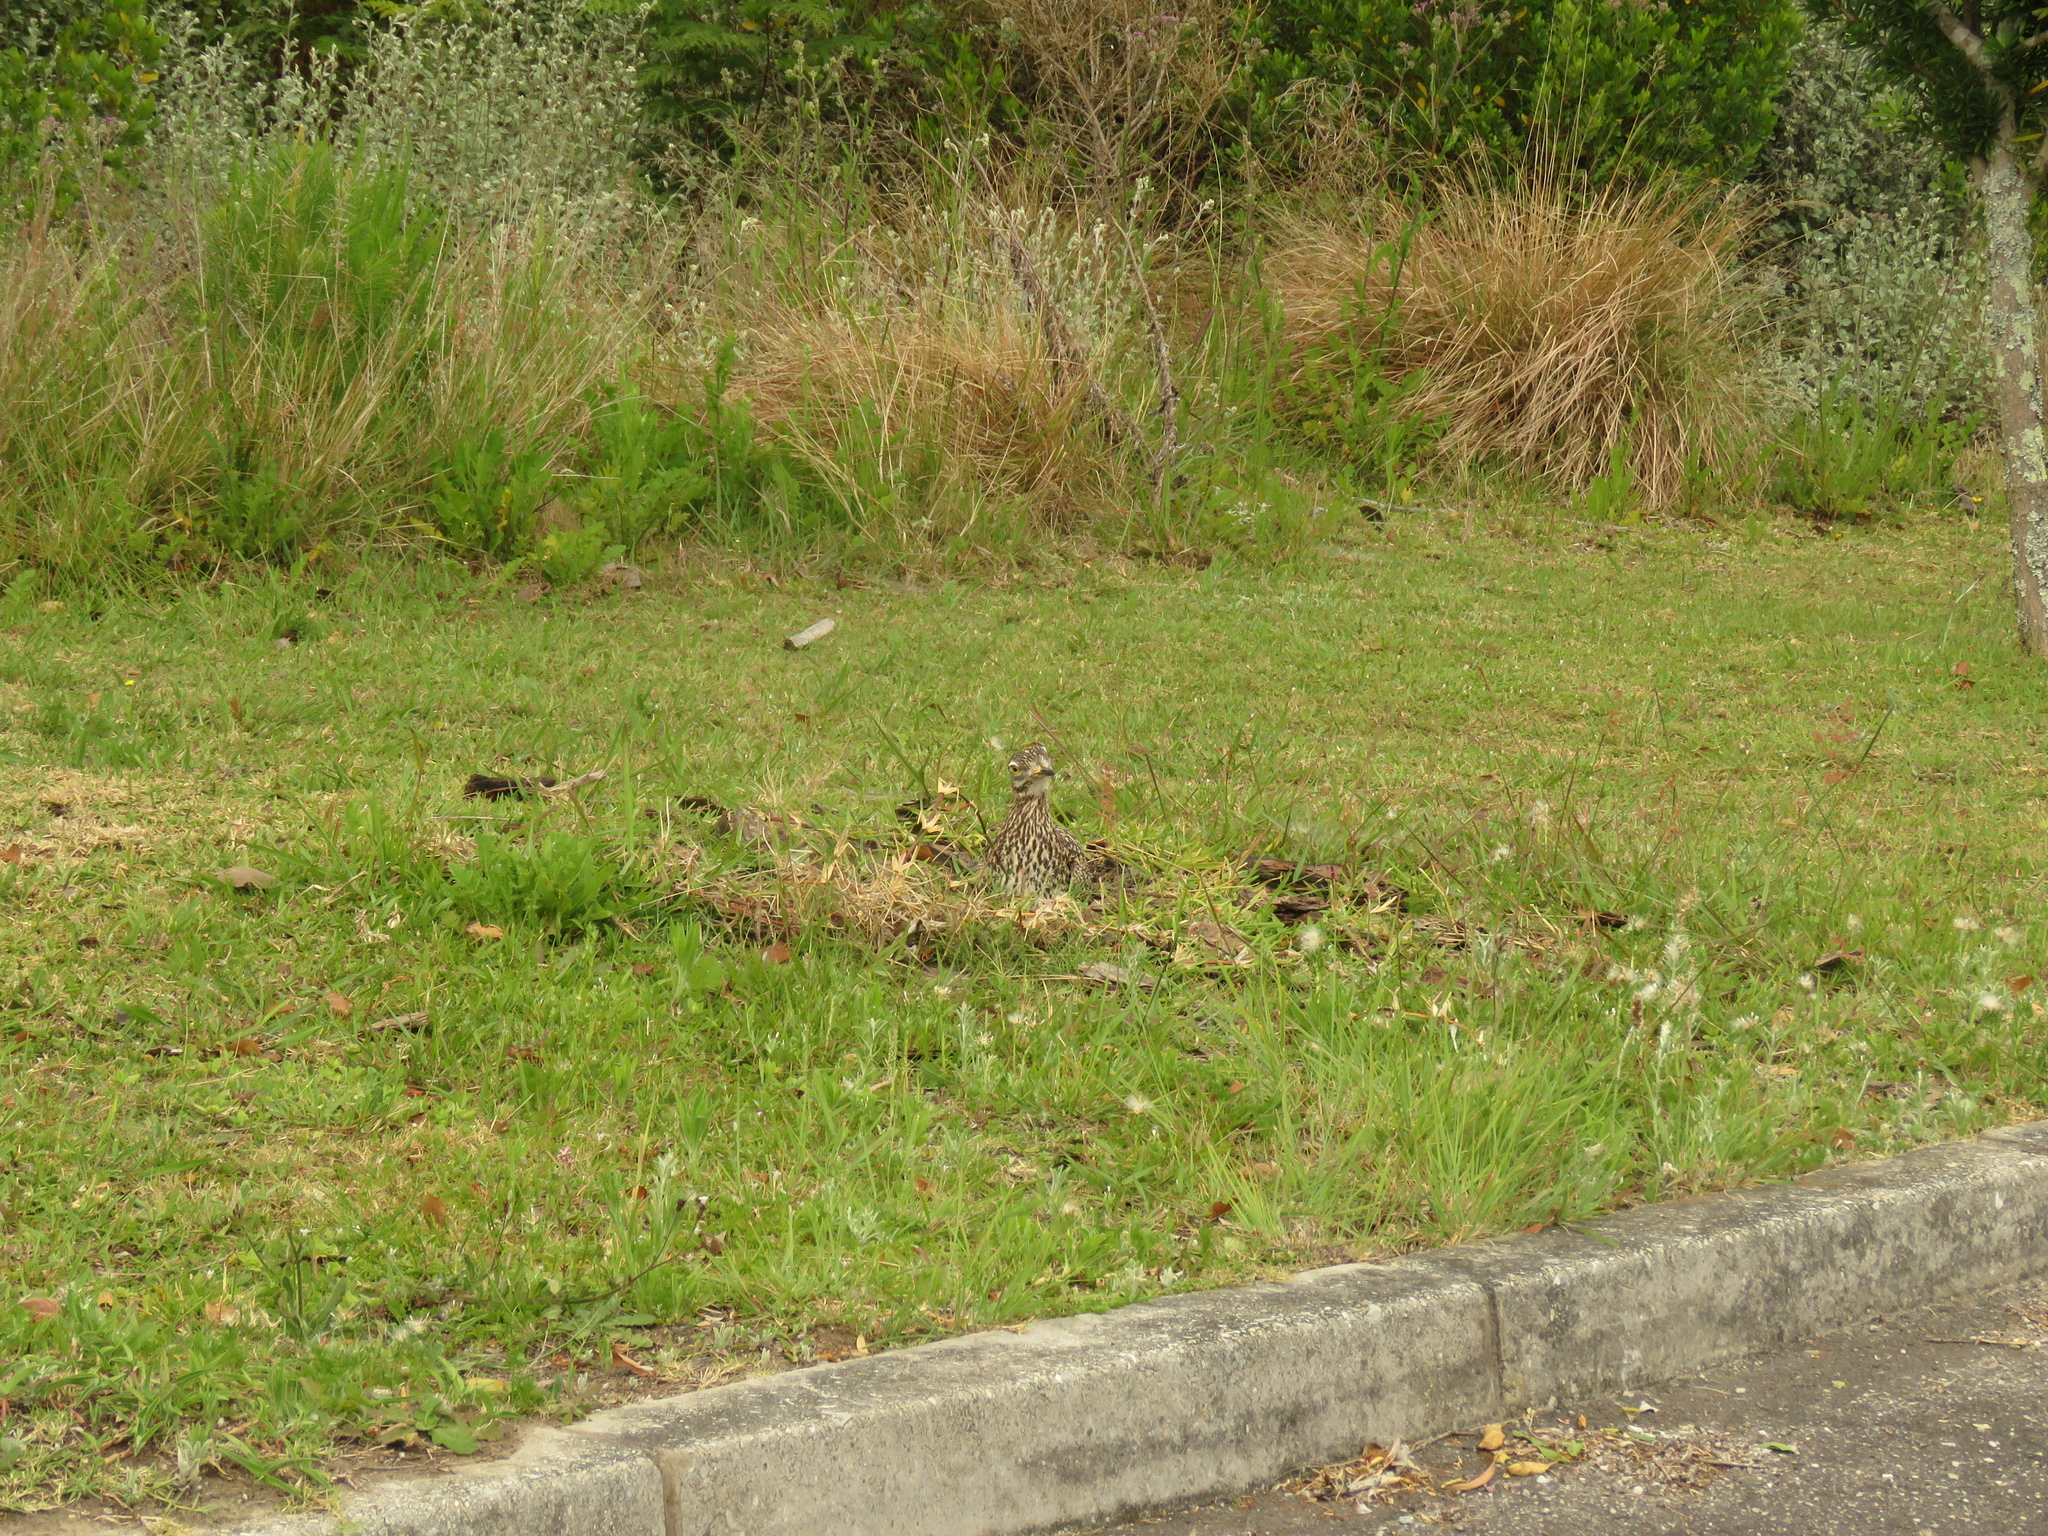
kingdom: Animalia
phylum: Chordata
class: Aves
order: Charadriiformes
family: Burhinidae
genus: Burhinus
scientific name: Burhinus capensis
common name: Spotted thick-knee
